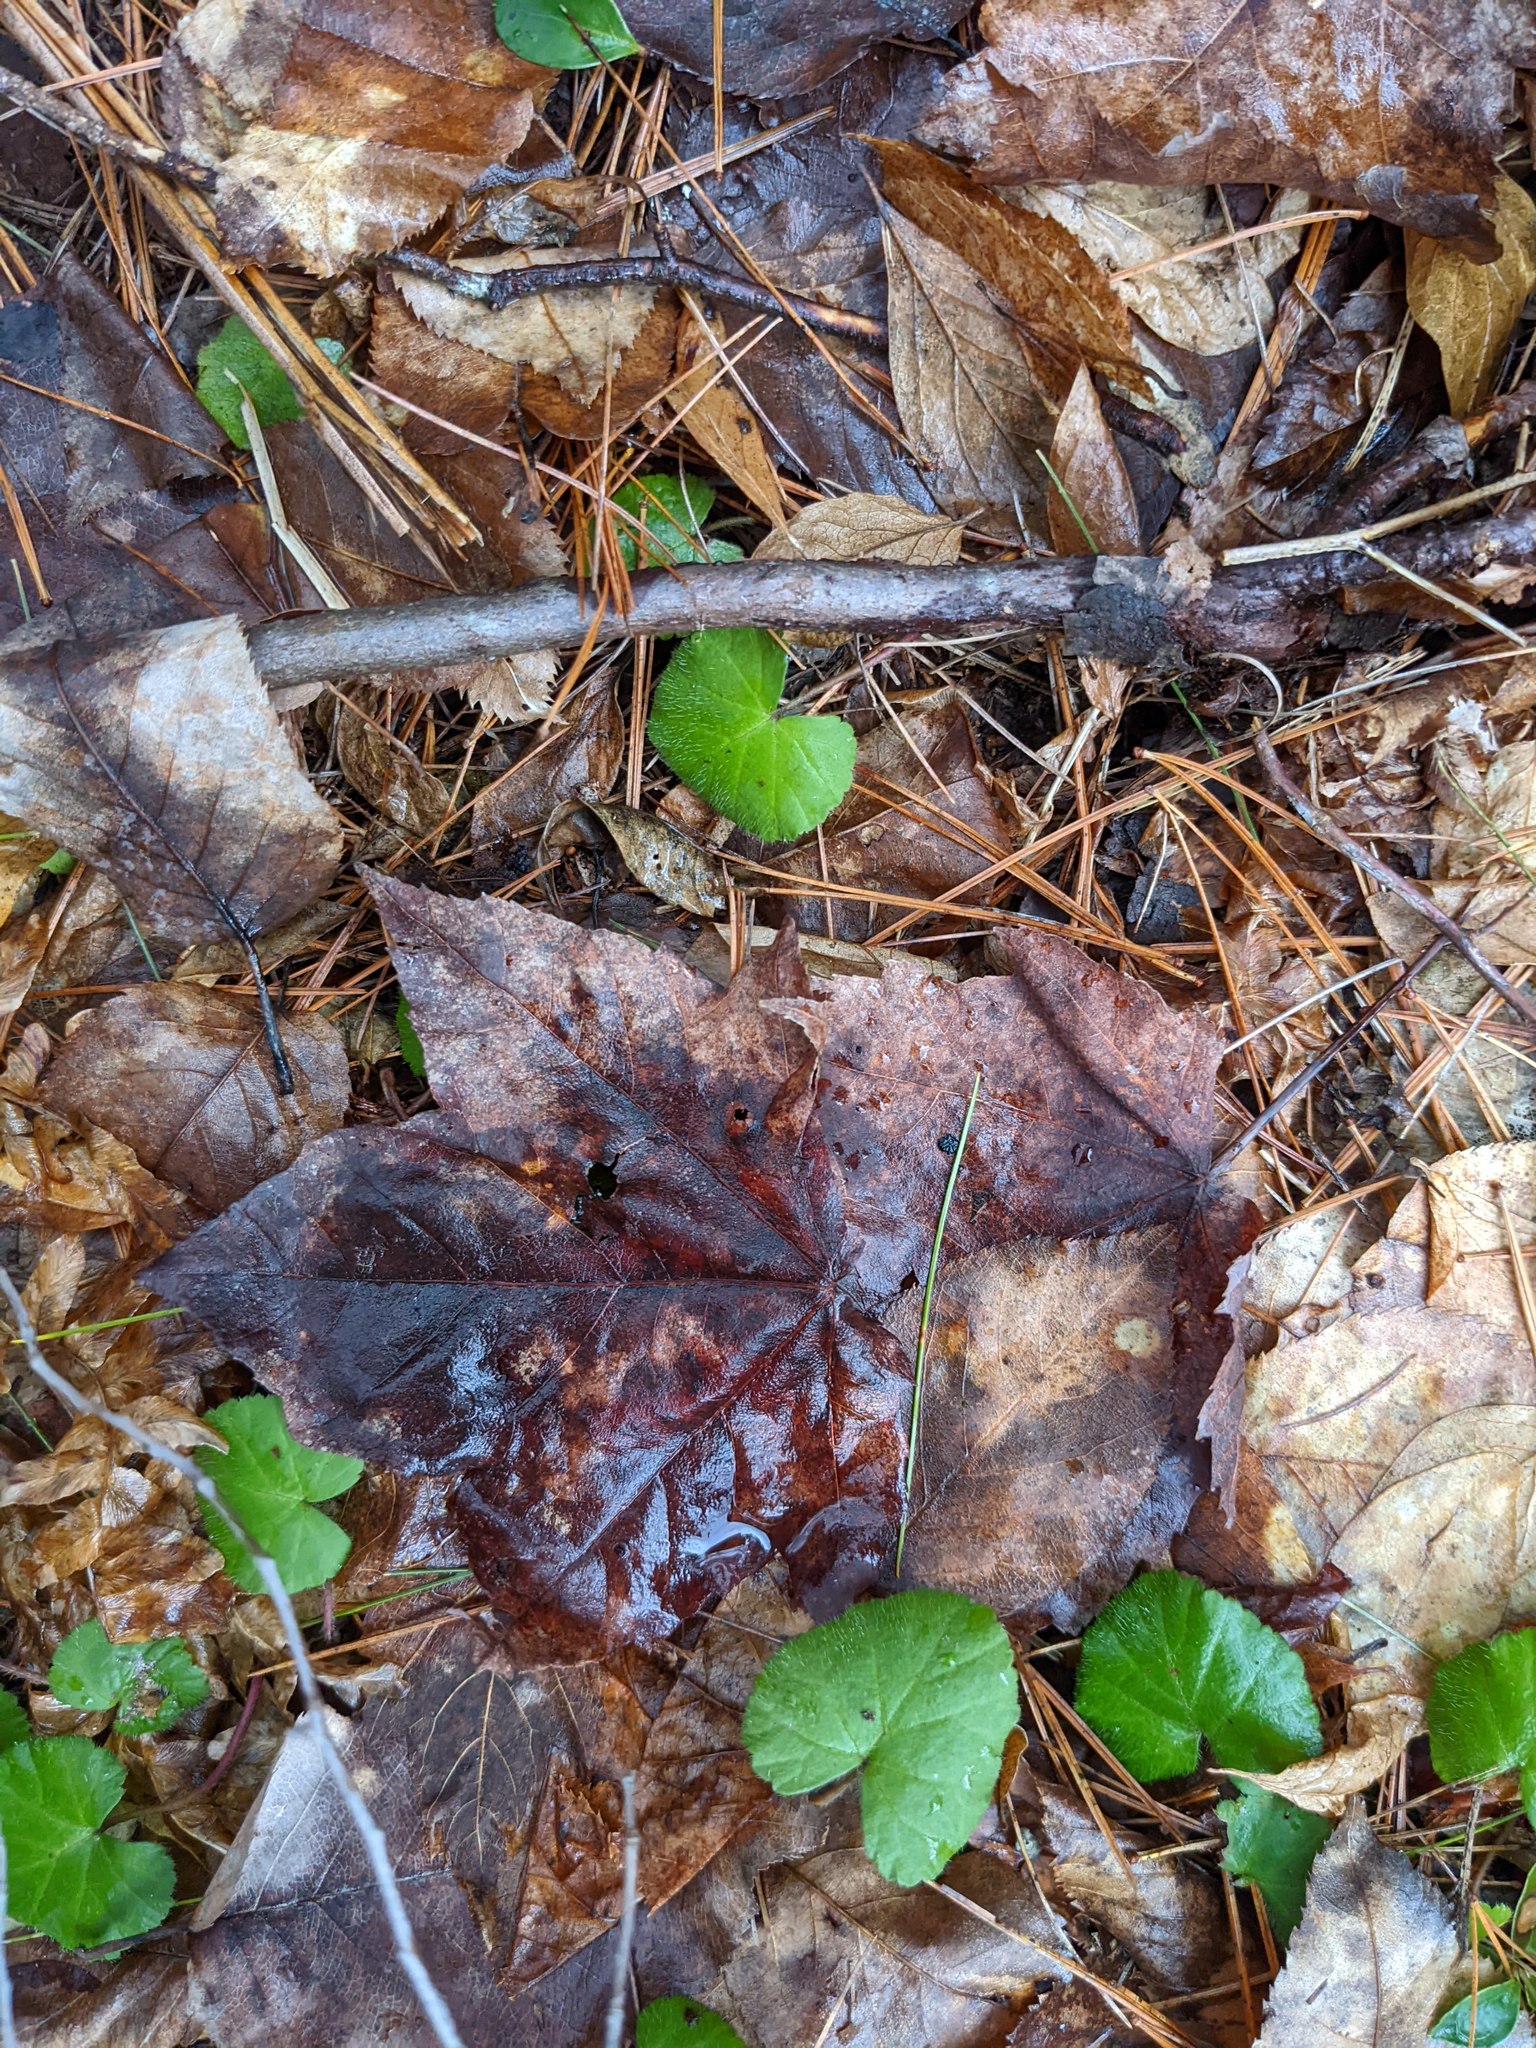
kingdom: Plantae
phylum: Tracheophyta
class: Magnoliopsida
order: Sapindales
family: Sapindaceae
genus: Acer
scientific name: Acer rubrum
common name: Red maple
